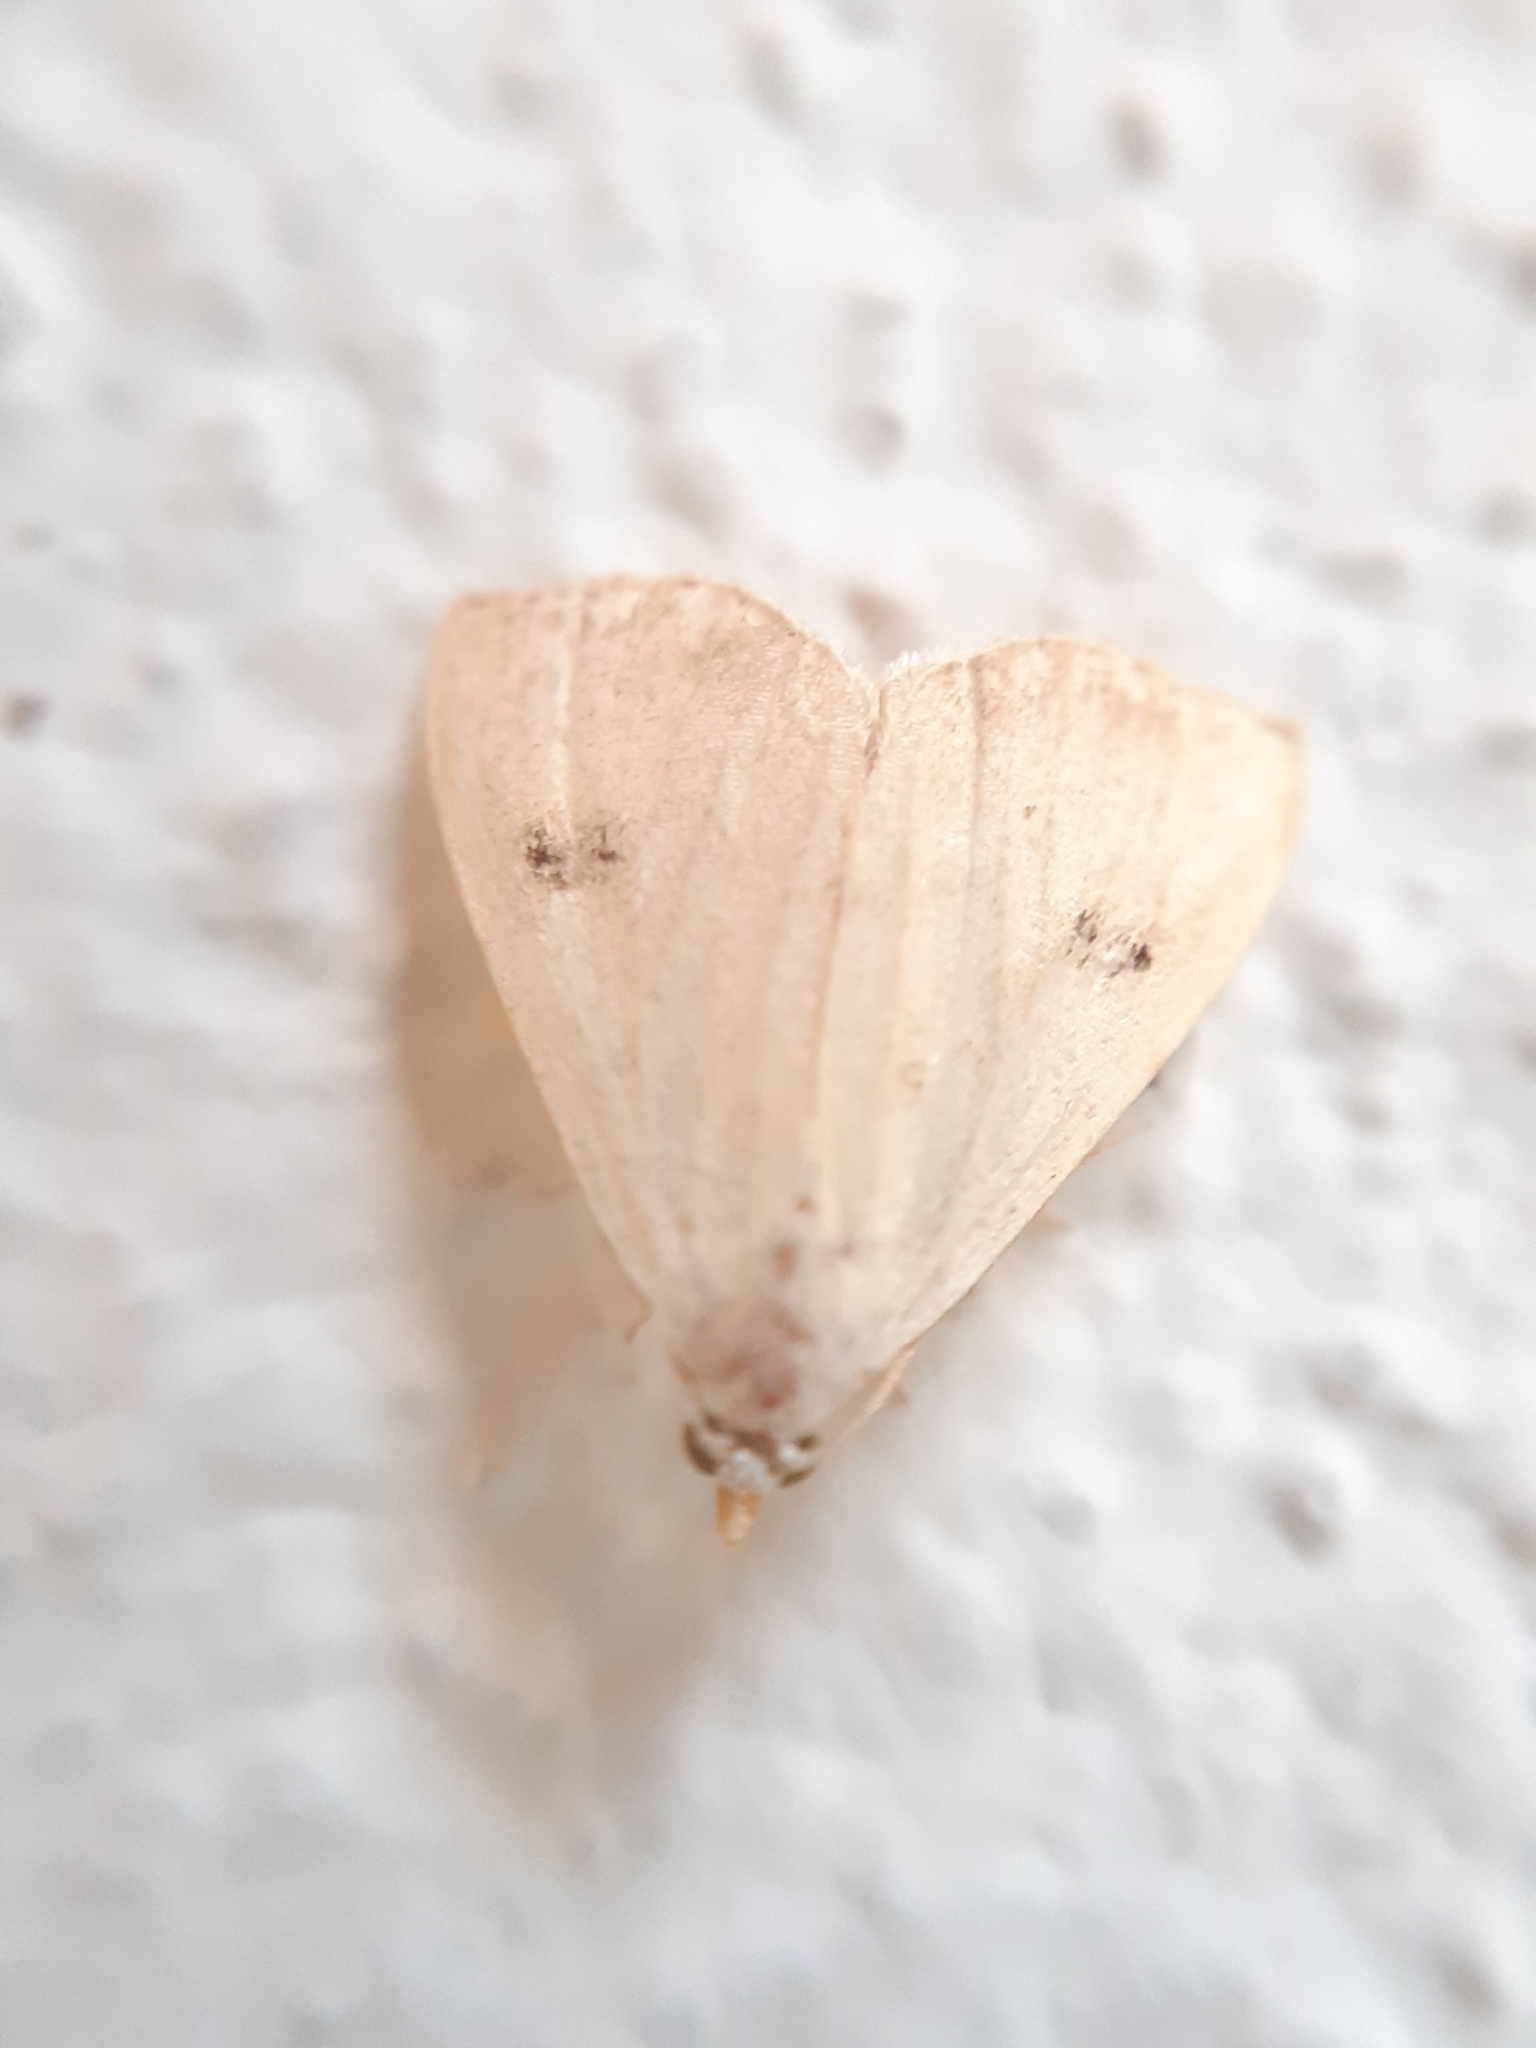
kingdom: Animalia
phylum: Arthropoda
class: Insecta
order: Lepidoptera
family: Erebidae
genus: Rivula
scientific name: Rivula sericealis
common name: Straw dot
